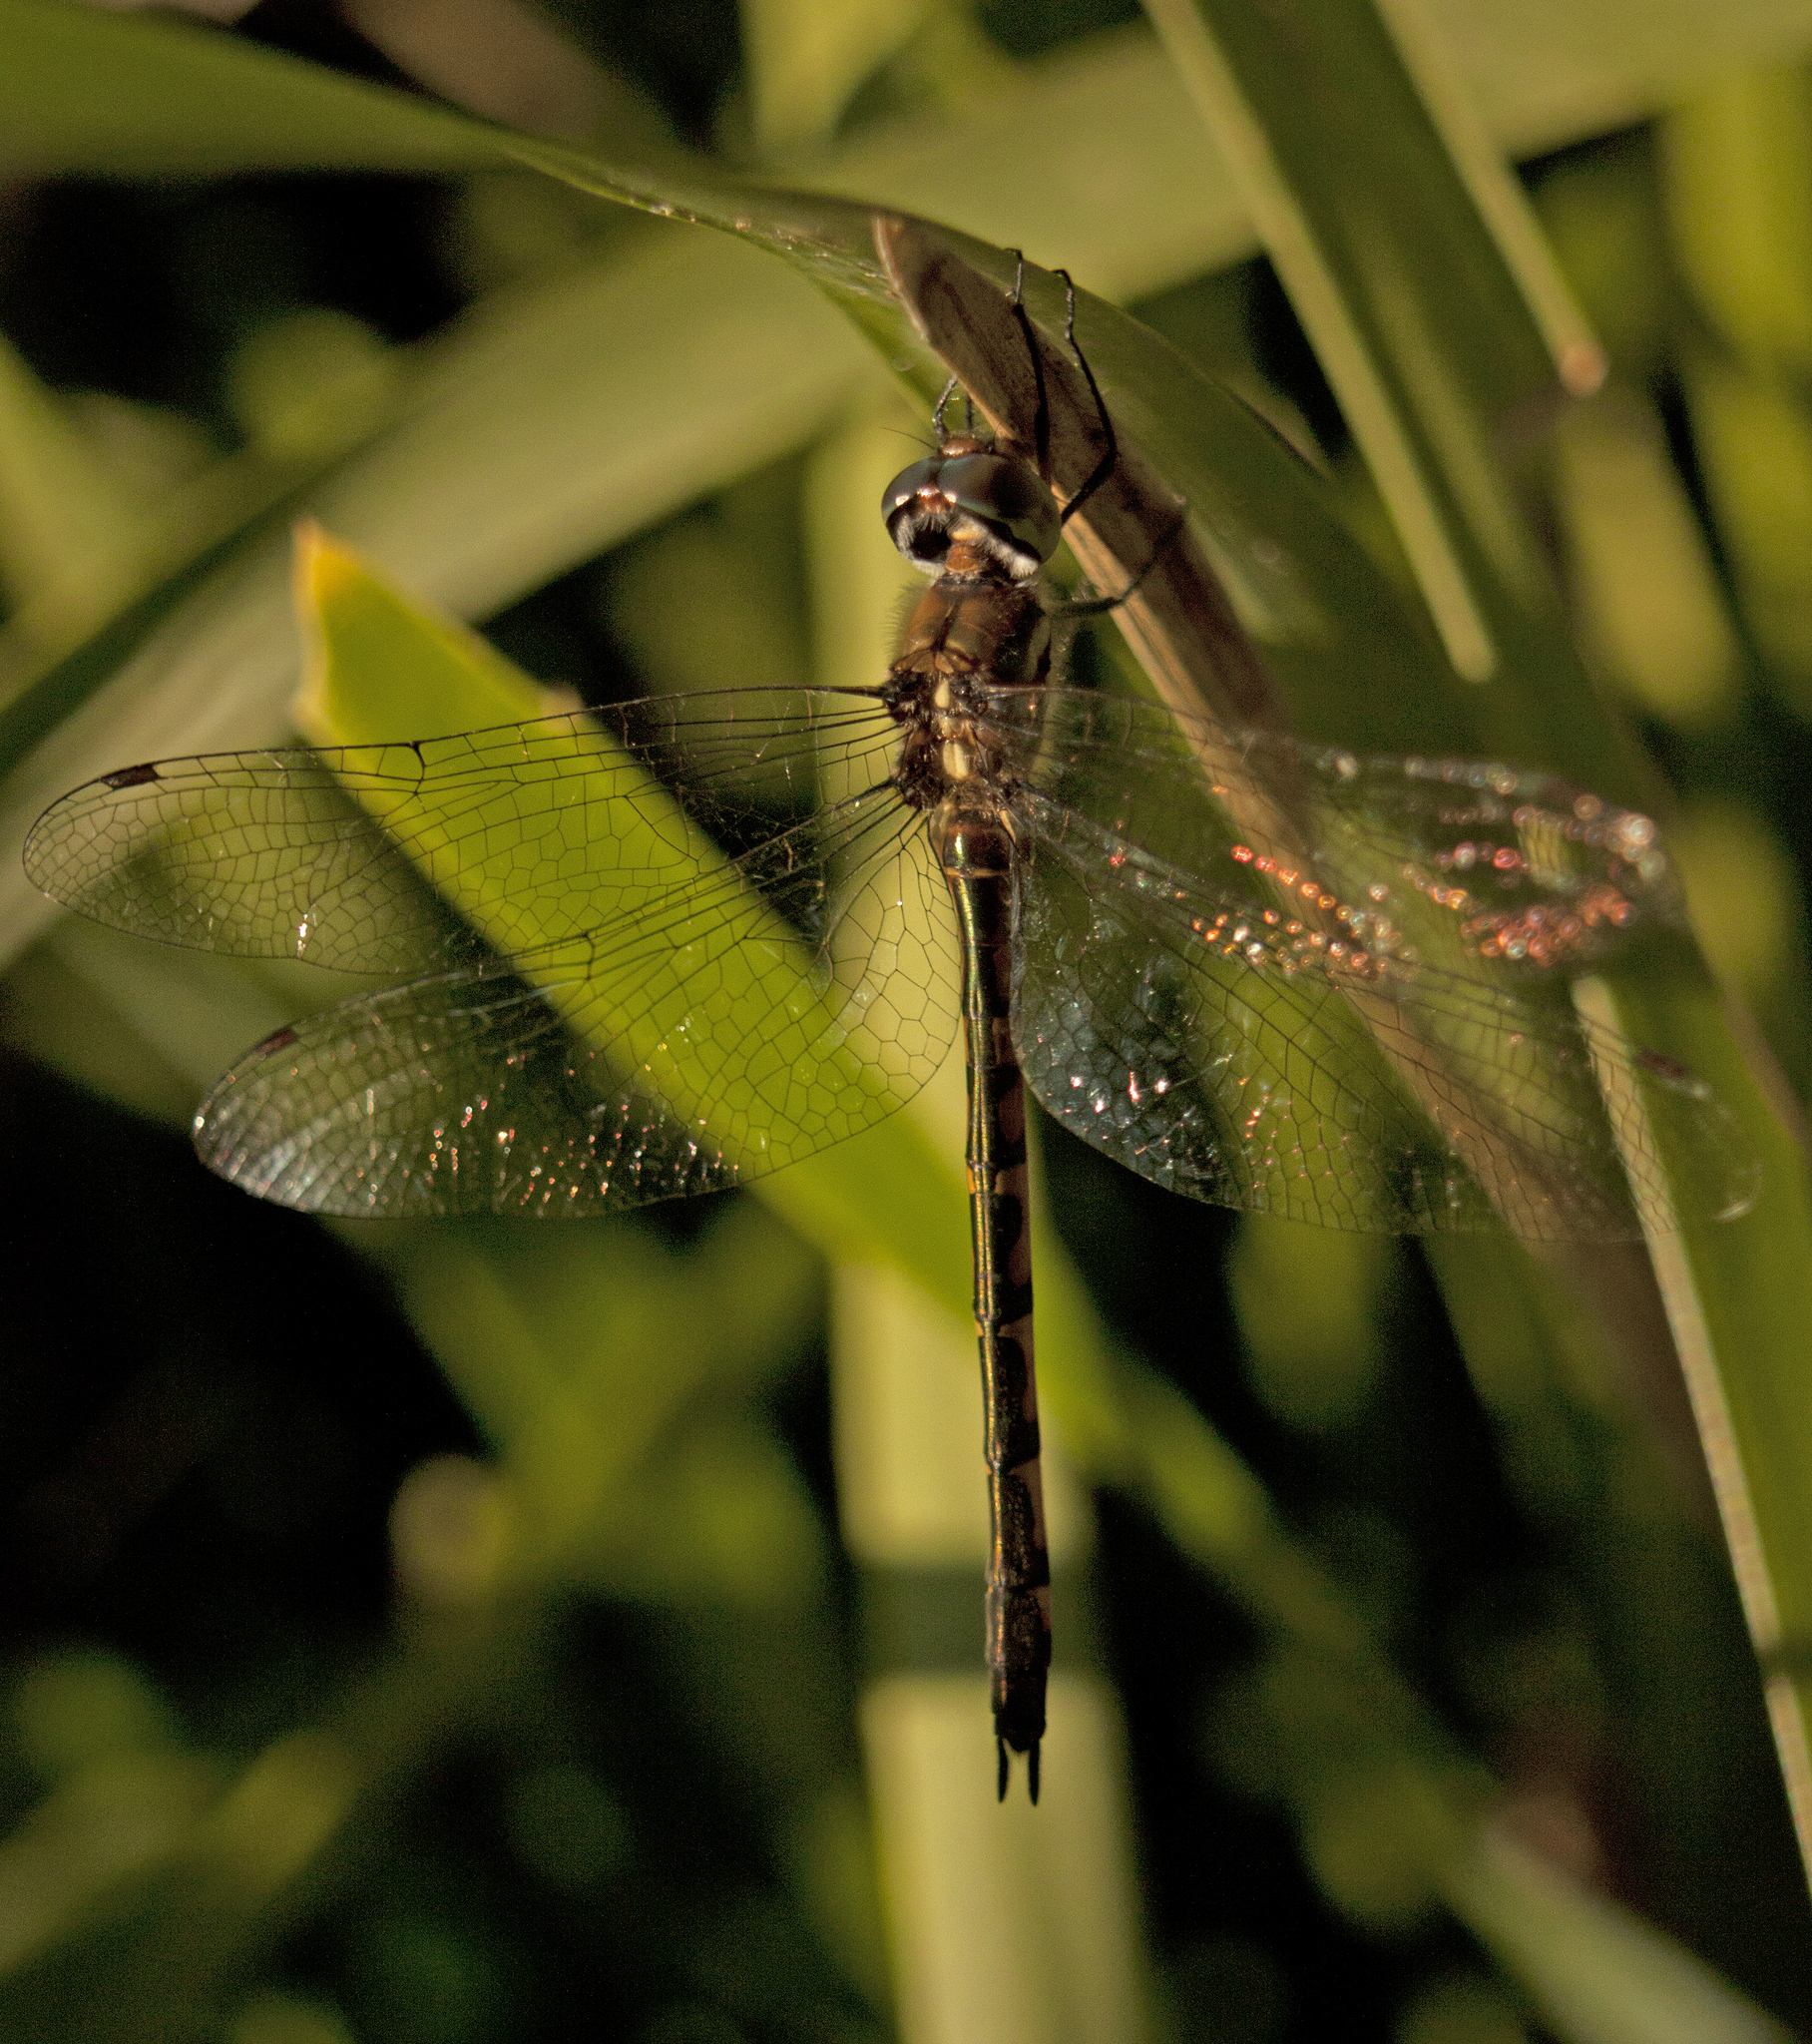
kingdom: Animalia
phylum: Arthropoda
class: Insecta
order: Odonata
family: Corduliidae
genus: Hemicordulia
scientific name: Hemicordulia australiae
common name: Sentry dragonfly
